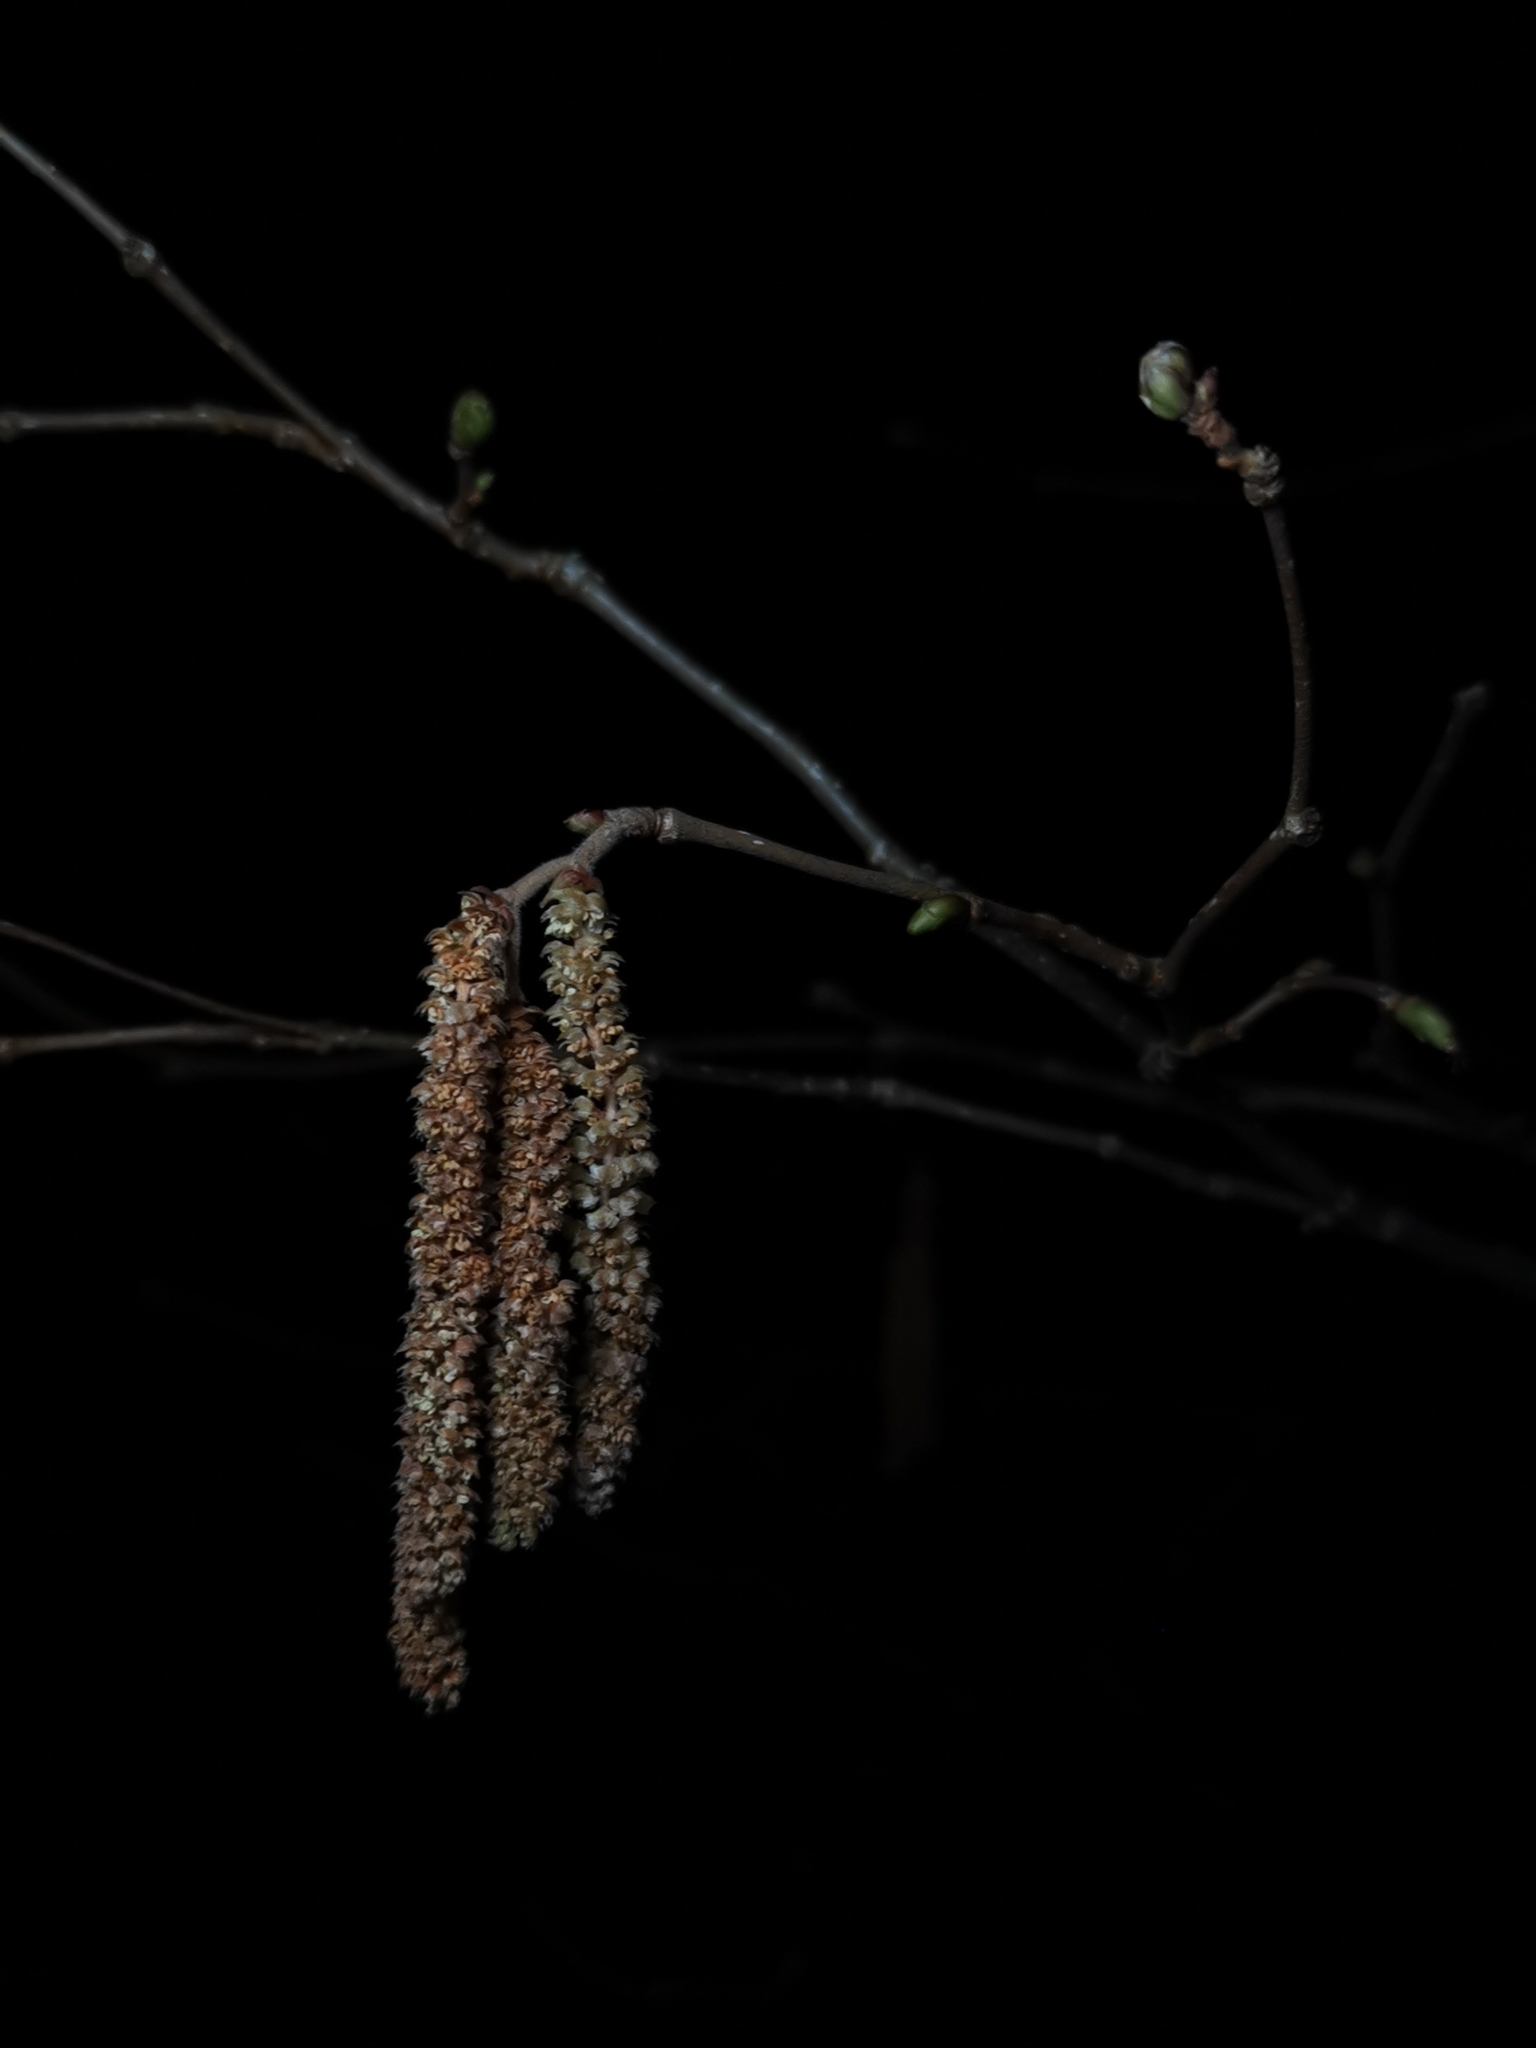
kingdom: Plantae
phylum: Tracheophyta
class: Magnoliopsida
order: Fagales
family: Betulaceae
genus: Corylus
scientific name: Corylus avellana
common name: European hazel
